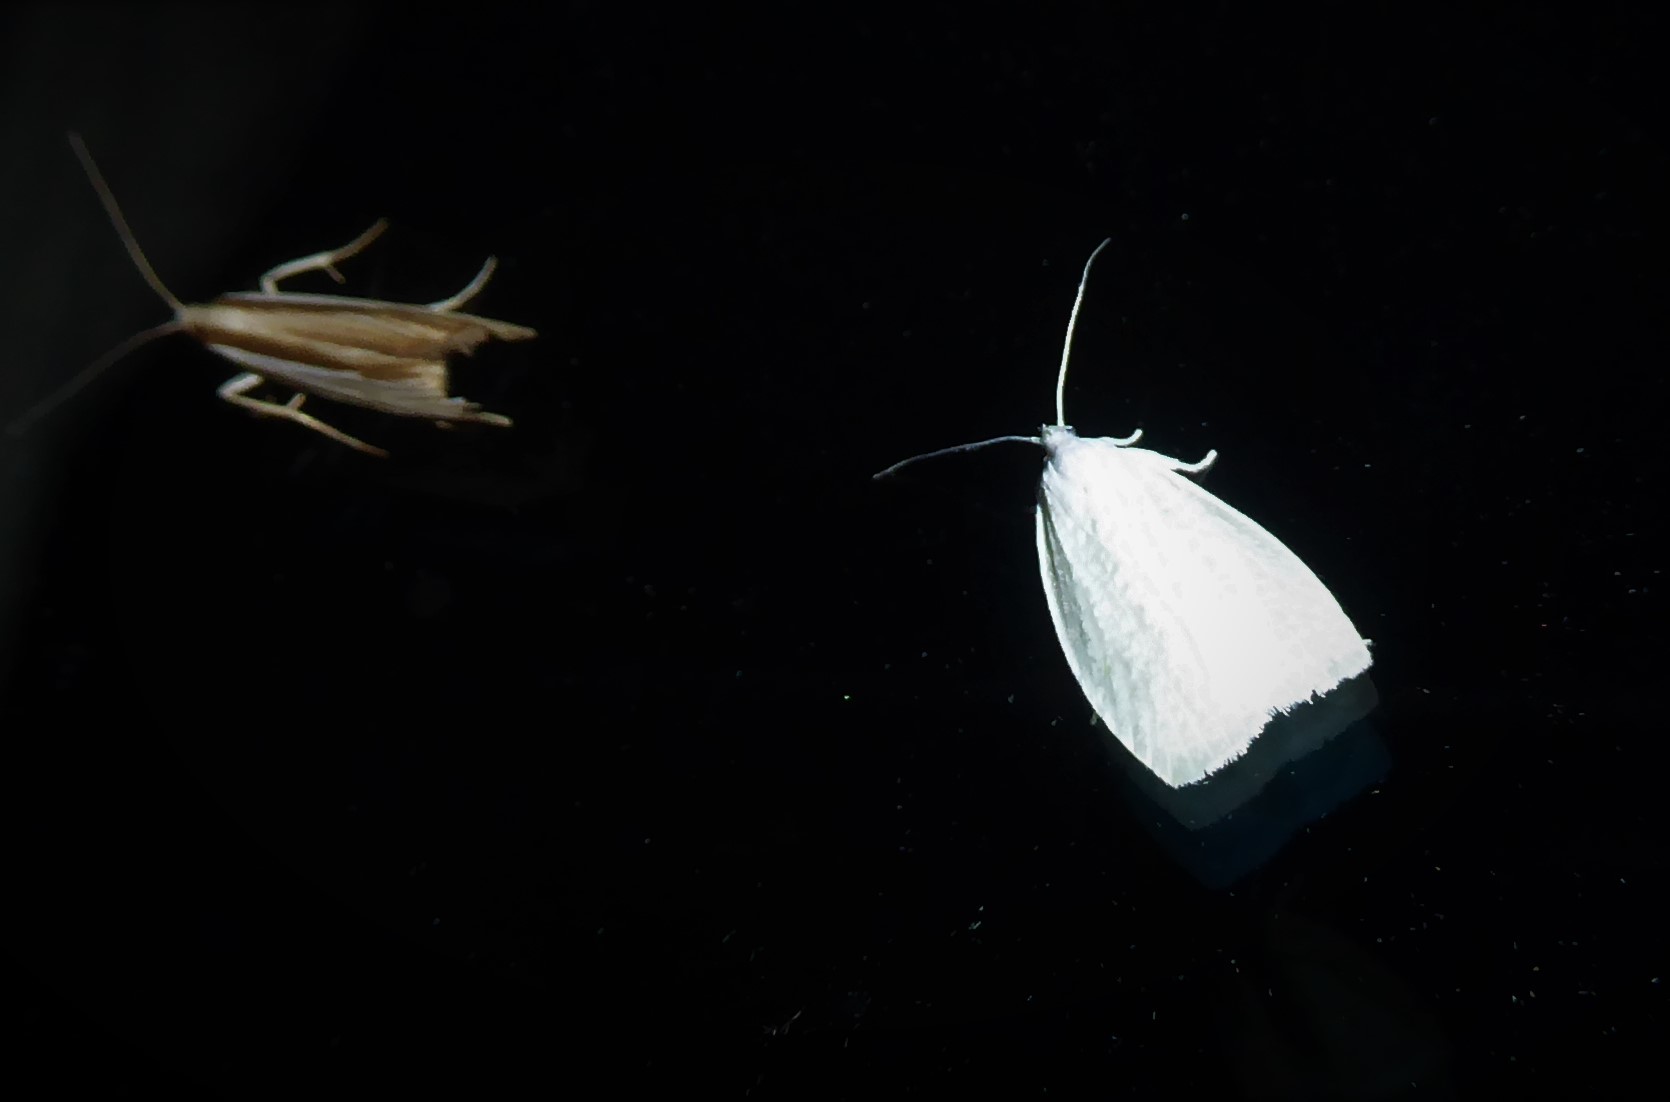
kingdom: Animalia
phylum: Arthropoda
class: Insecta
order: Lepidoptera
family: Oecophoridae
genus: Nymphostola
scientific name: Nymphostola galactina
